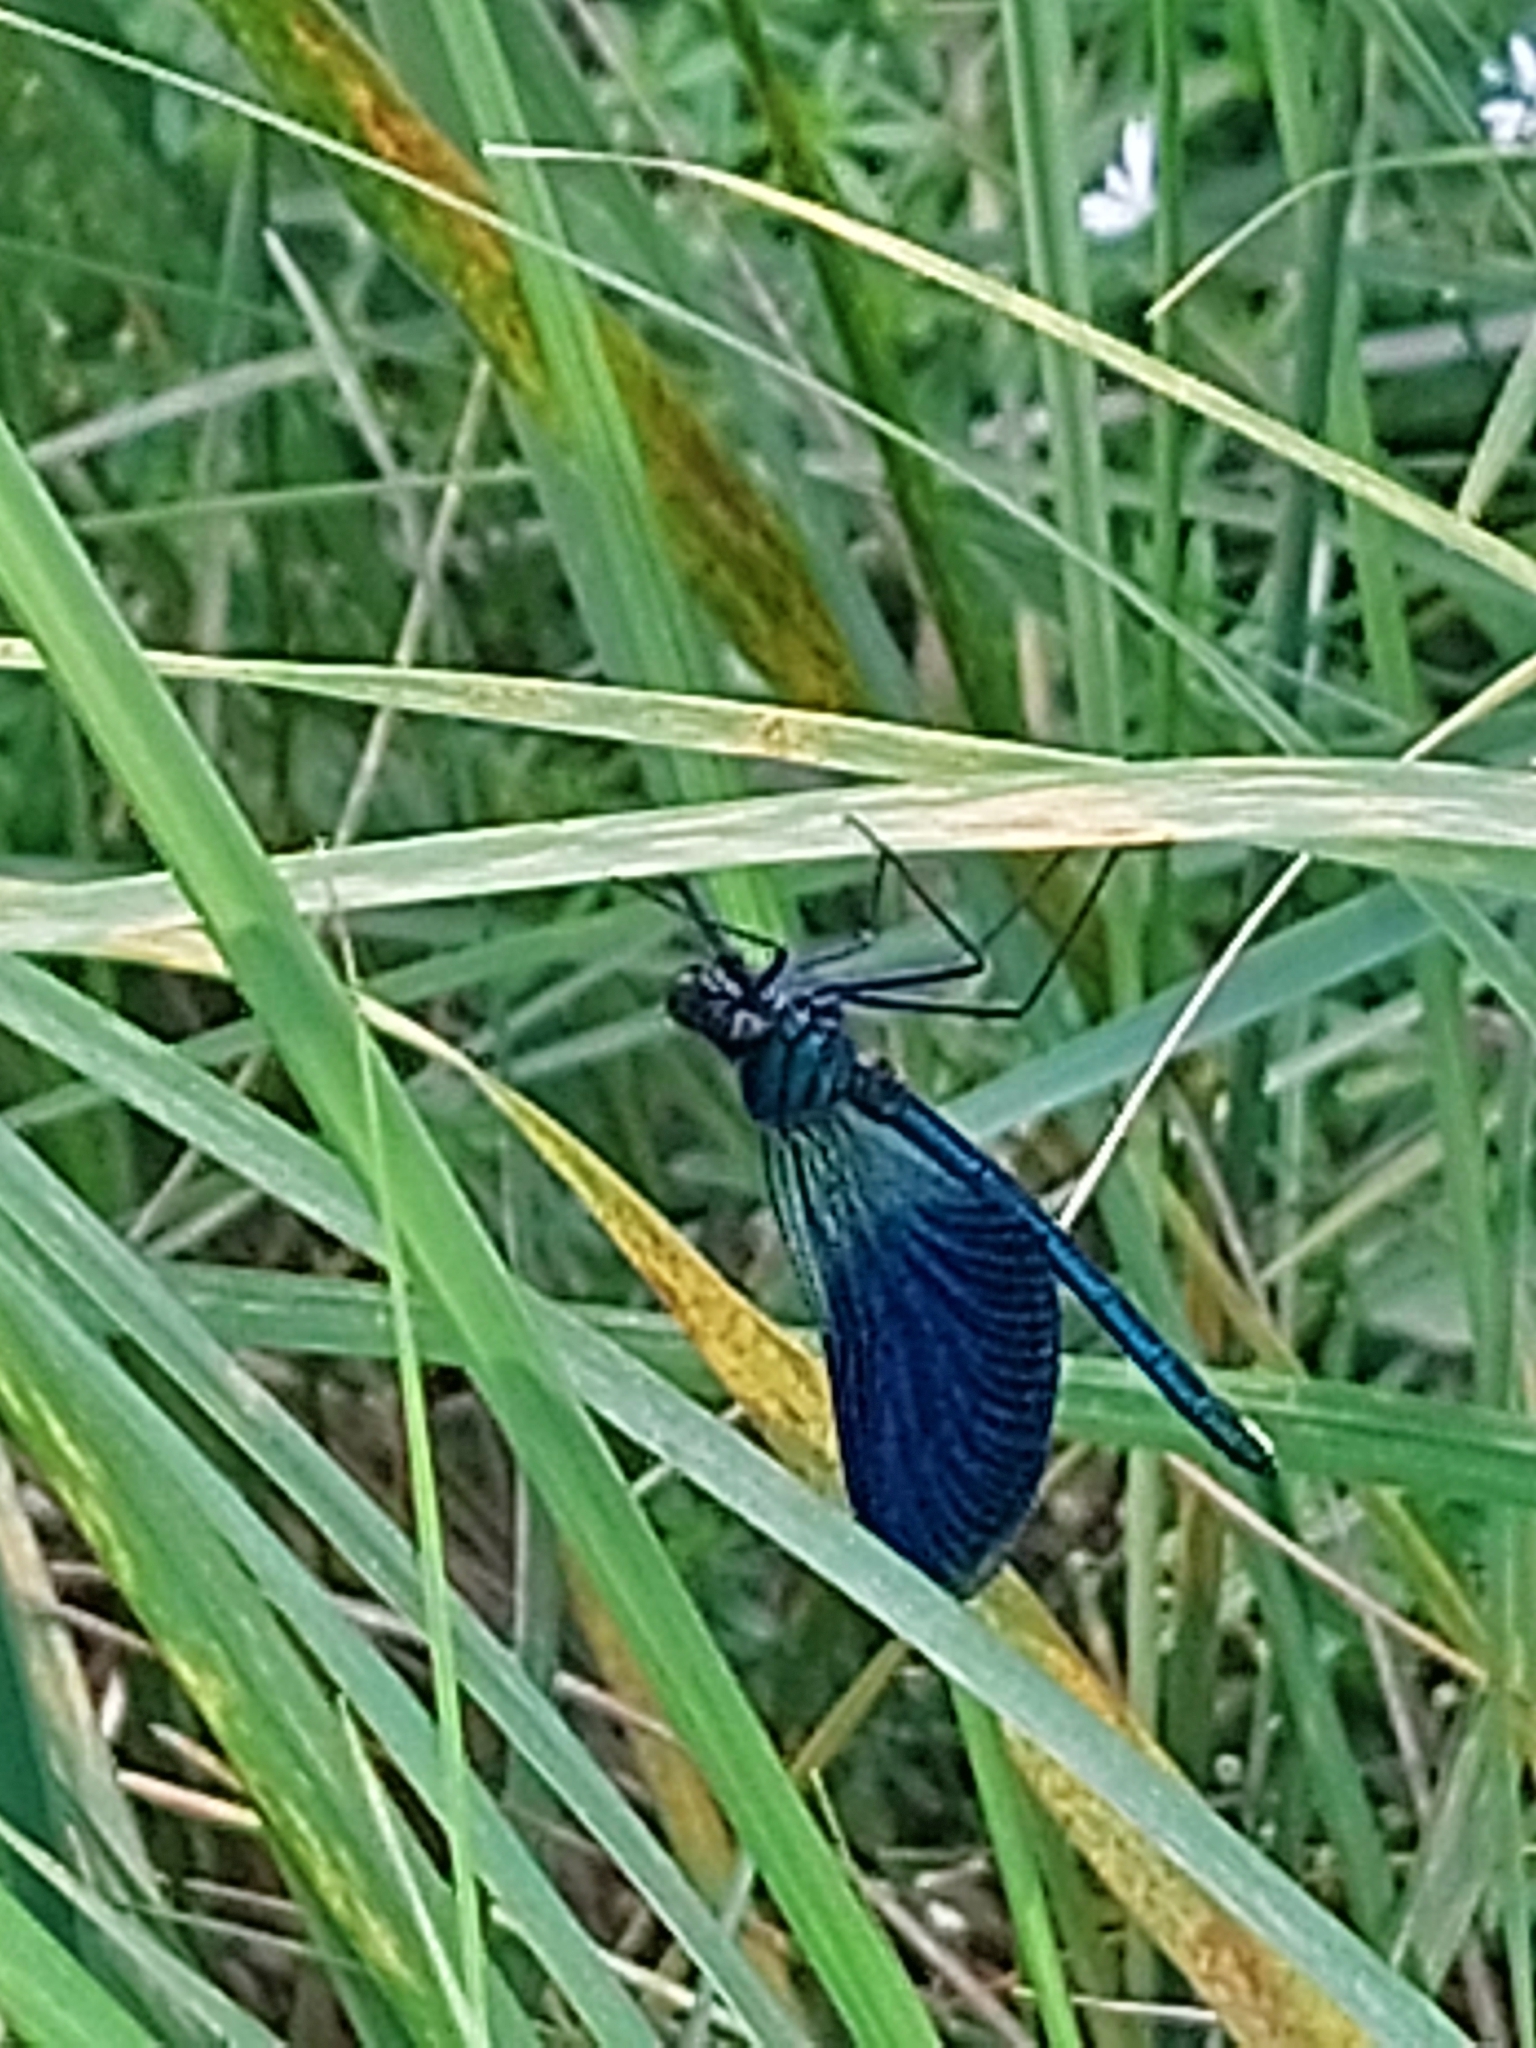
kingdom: Animalia
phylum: Arthropoda
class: Insecta
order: Odonata
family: Calopterygidae
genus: Calopteryx
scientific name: Calopteryx splendens
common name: Banded demoiselle
